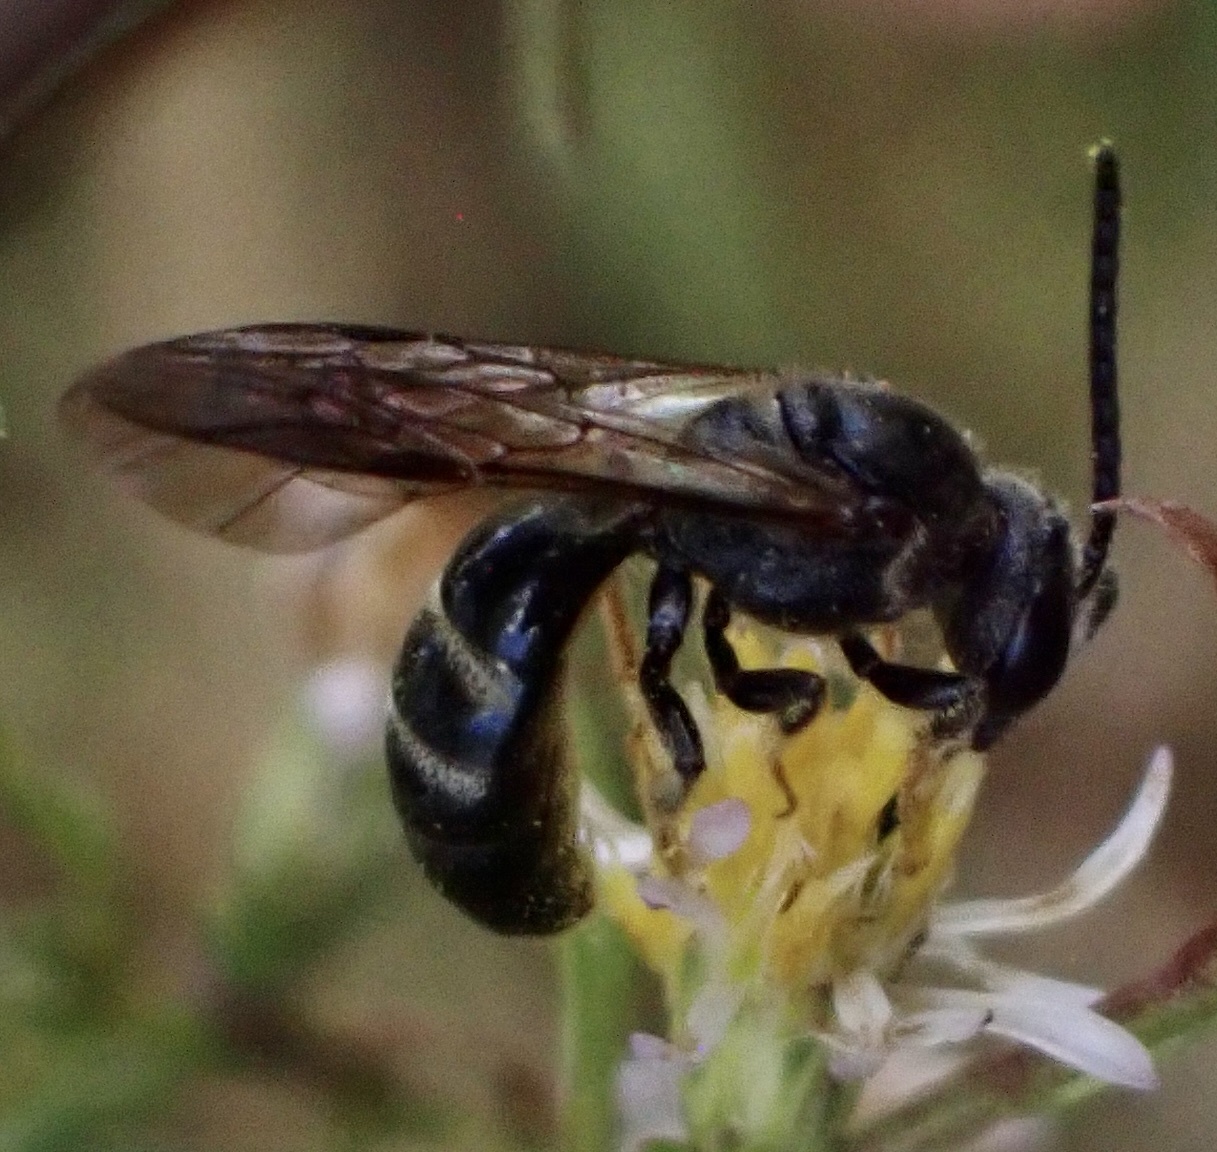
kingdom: Animalia
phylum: Arthropoda
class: Insecta
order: Hymenoptera
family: Halictidae
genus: Lasioglossum
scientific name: Lasioglossum fuscipenne
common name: Brown-winged sweat bee
